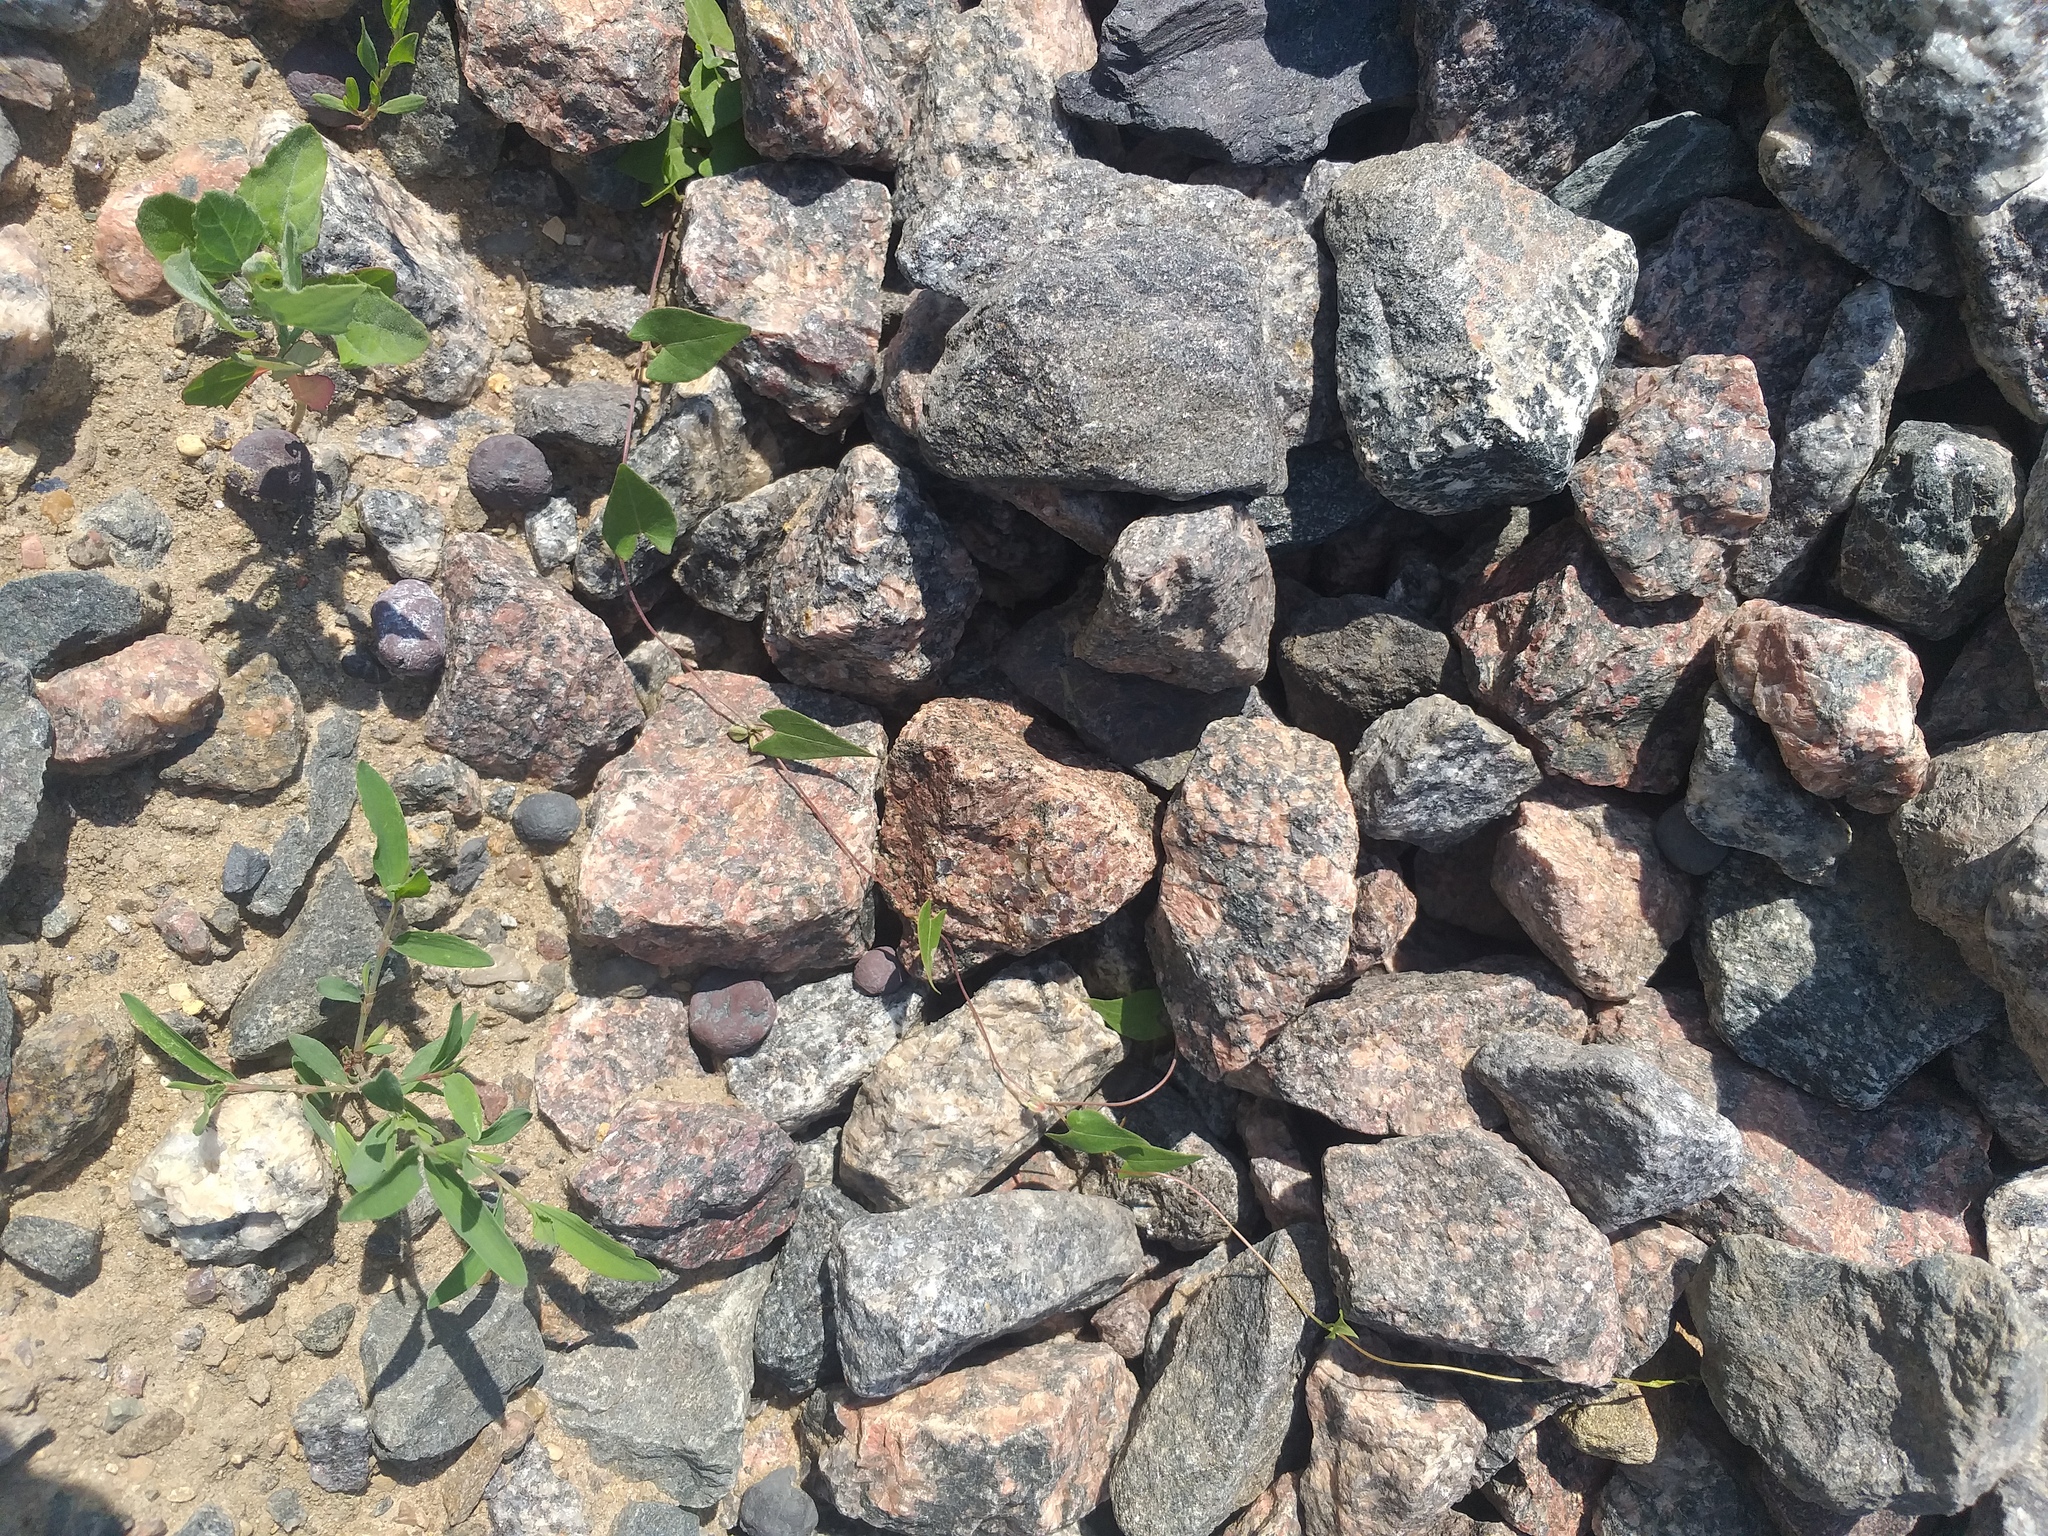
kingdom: Plantae
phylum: Tracheophyta
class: Magnoliopsida
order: Caryophyllales
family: Polygonaceae
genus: Fallopia
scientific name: Fallopia convolvulus
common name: Black bindweed
